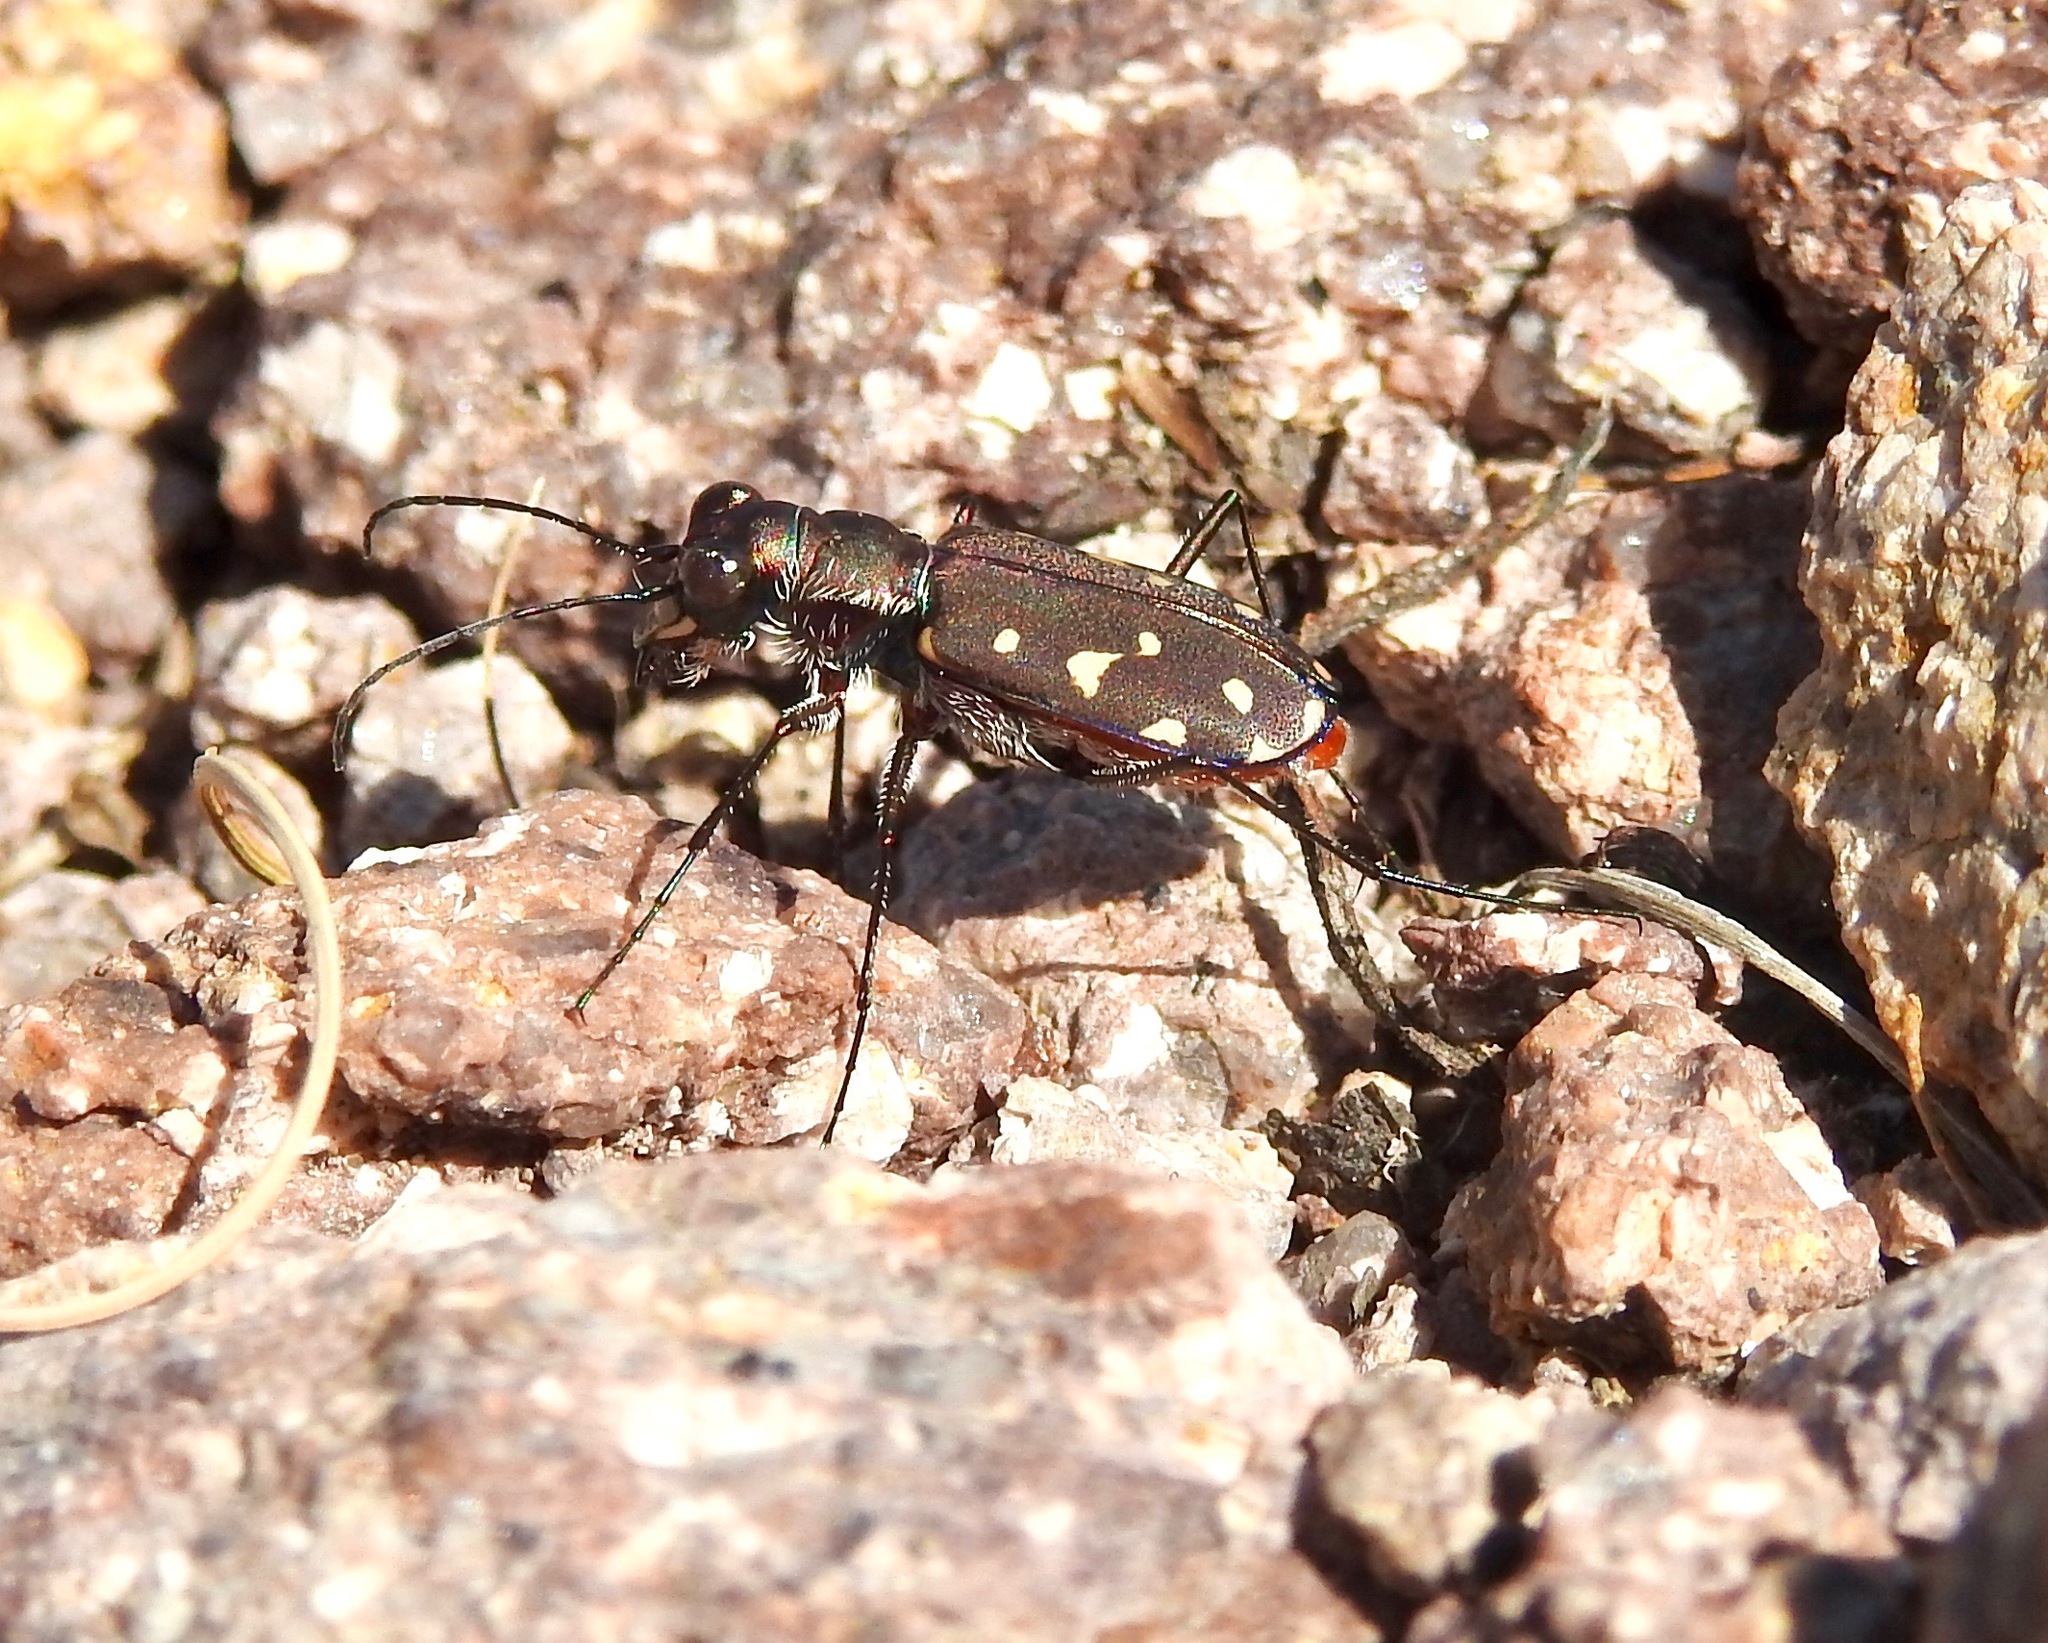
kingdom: Animalia
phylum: Arthropoda
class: Insecta
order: Coleoptera
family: Carabidae
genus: Cicindela
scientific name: Cicindela sedecimpunctata
